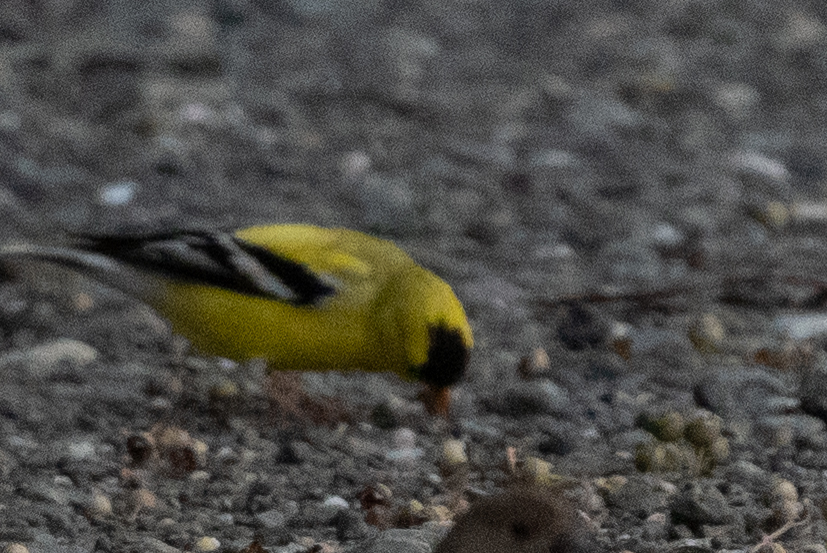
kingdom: Animalia
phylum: Chordata
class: Aves
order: Passeriformes
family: Fringillidae
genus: Spinus
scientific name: Spinus tristis
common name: American goldfinch
